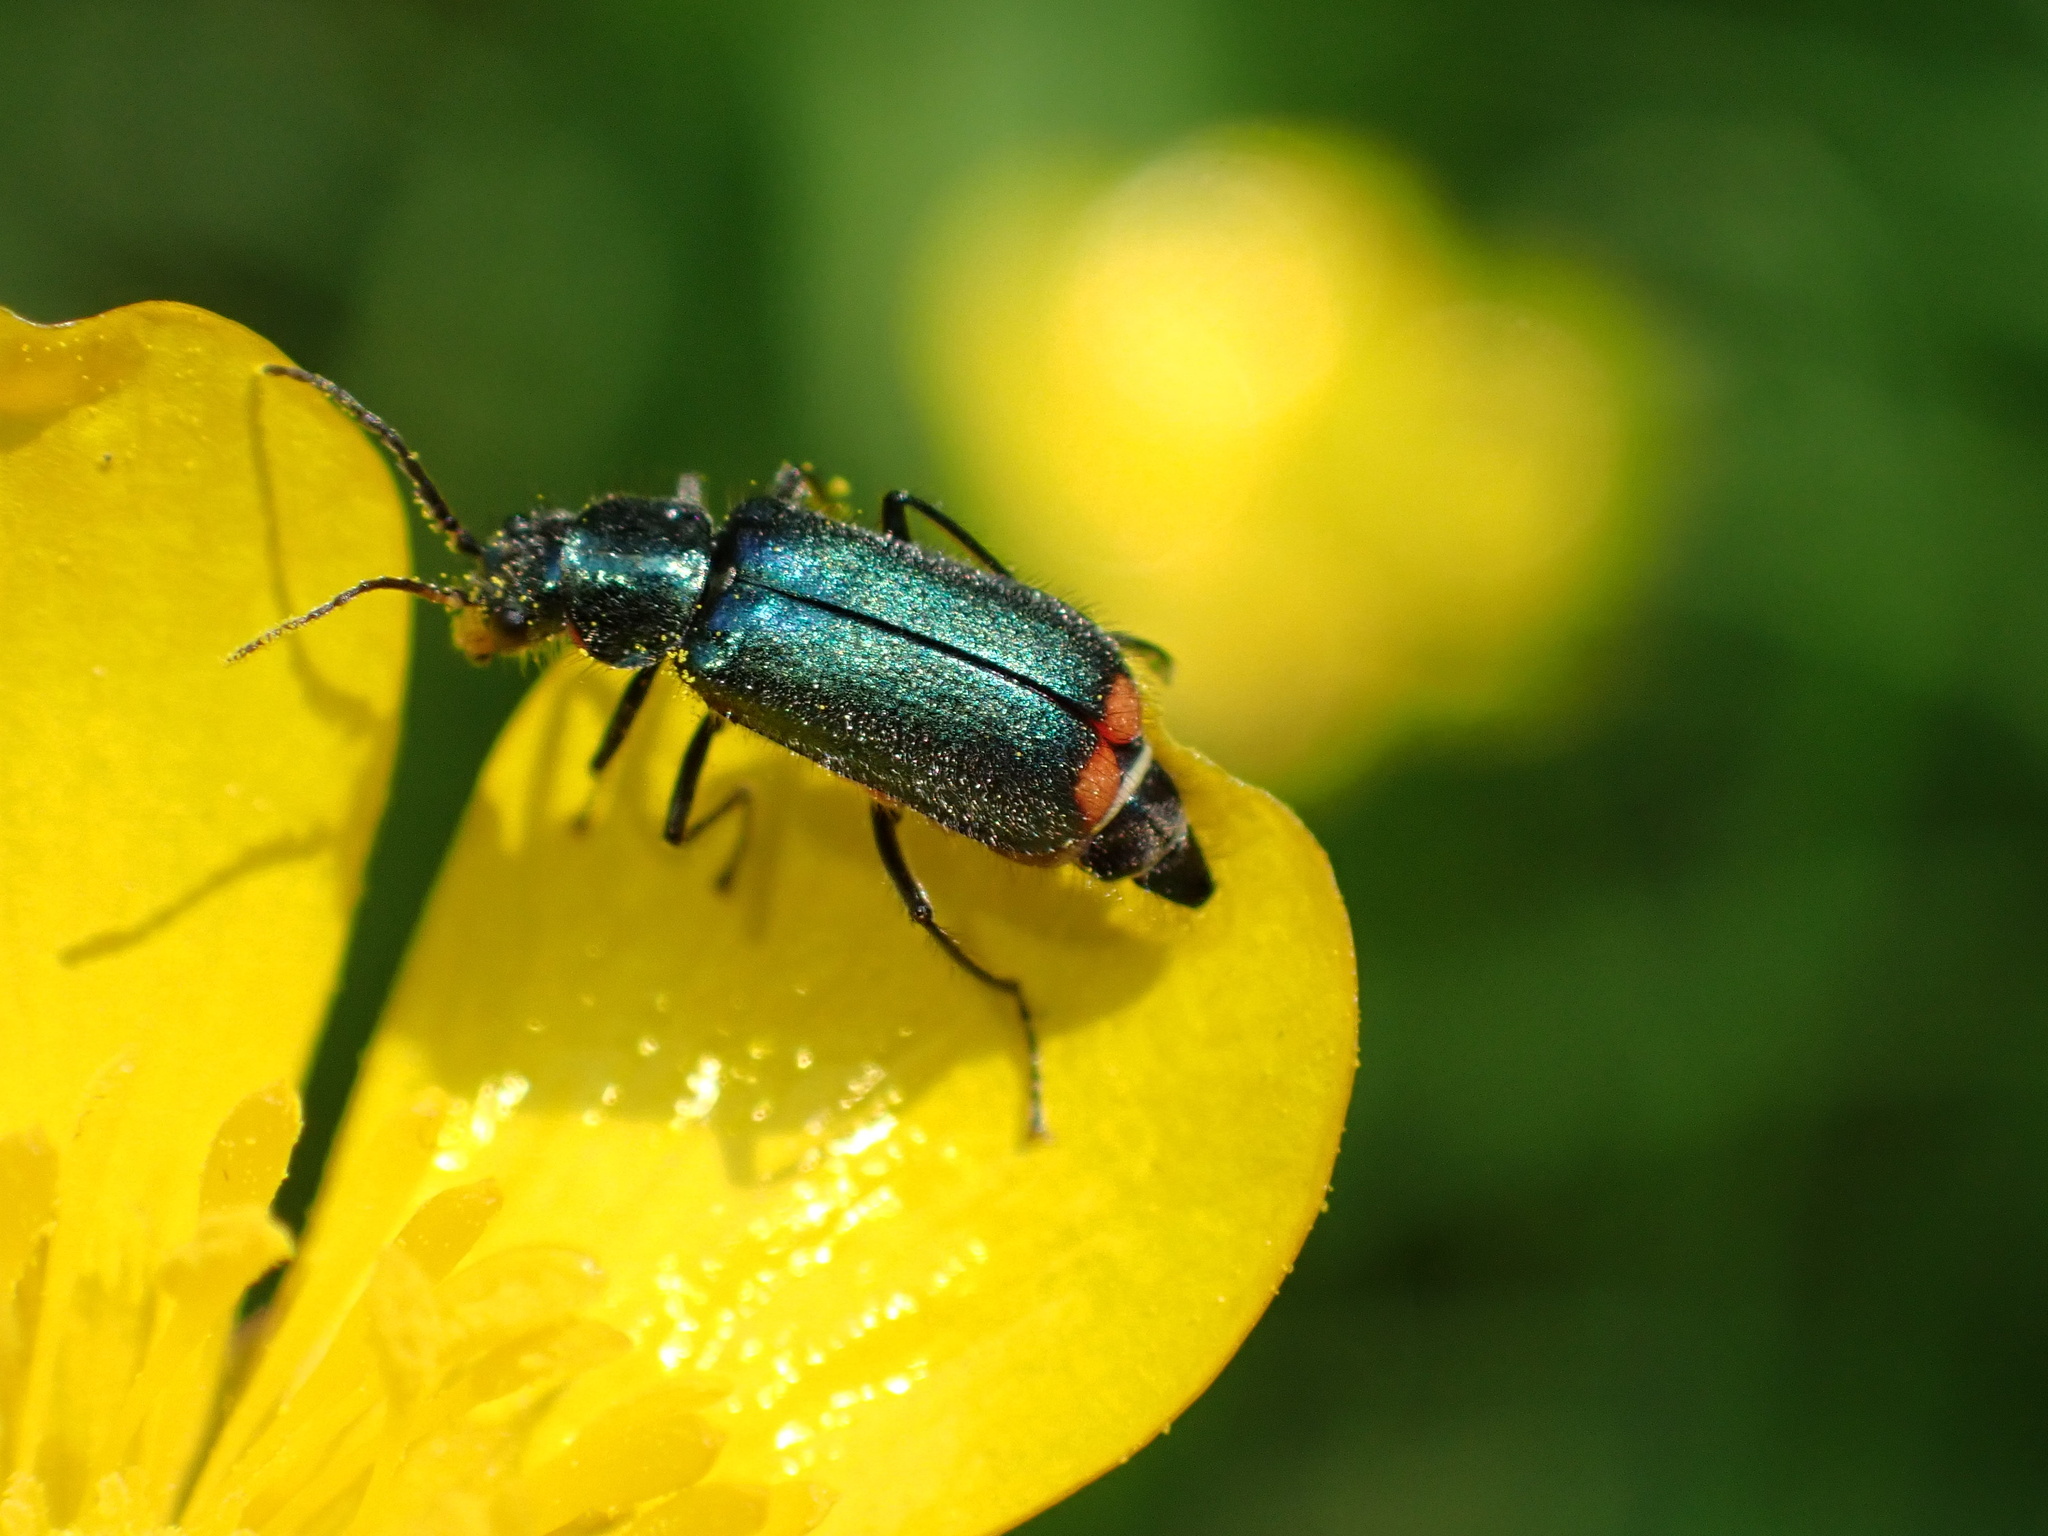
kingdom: Animalia
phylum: Arthropoda
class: Insecta
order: Coleoptera
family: Melyridae
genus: Malachius
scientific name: Malachius bipustulatus
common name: Malachite beetle
